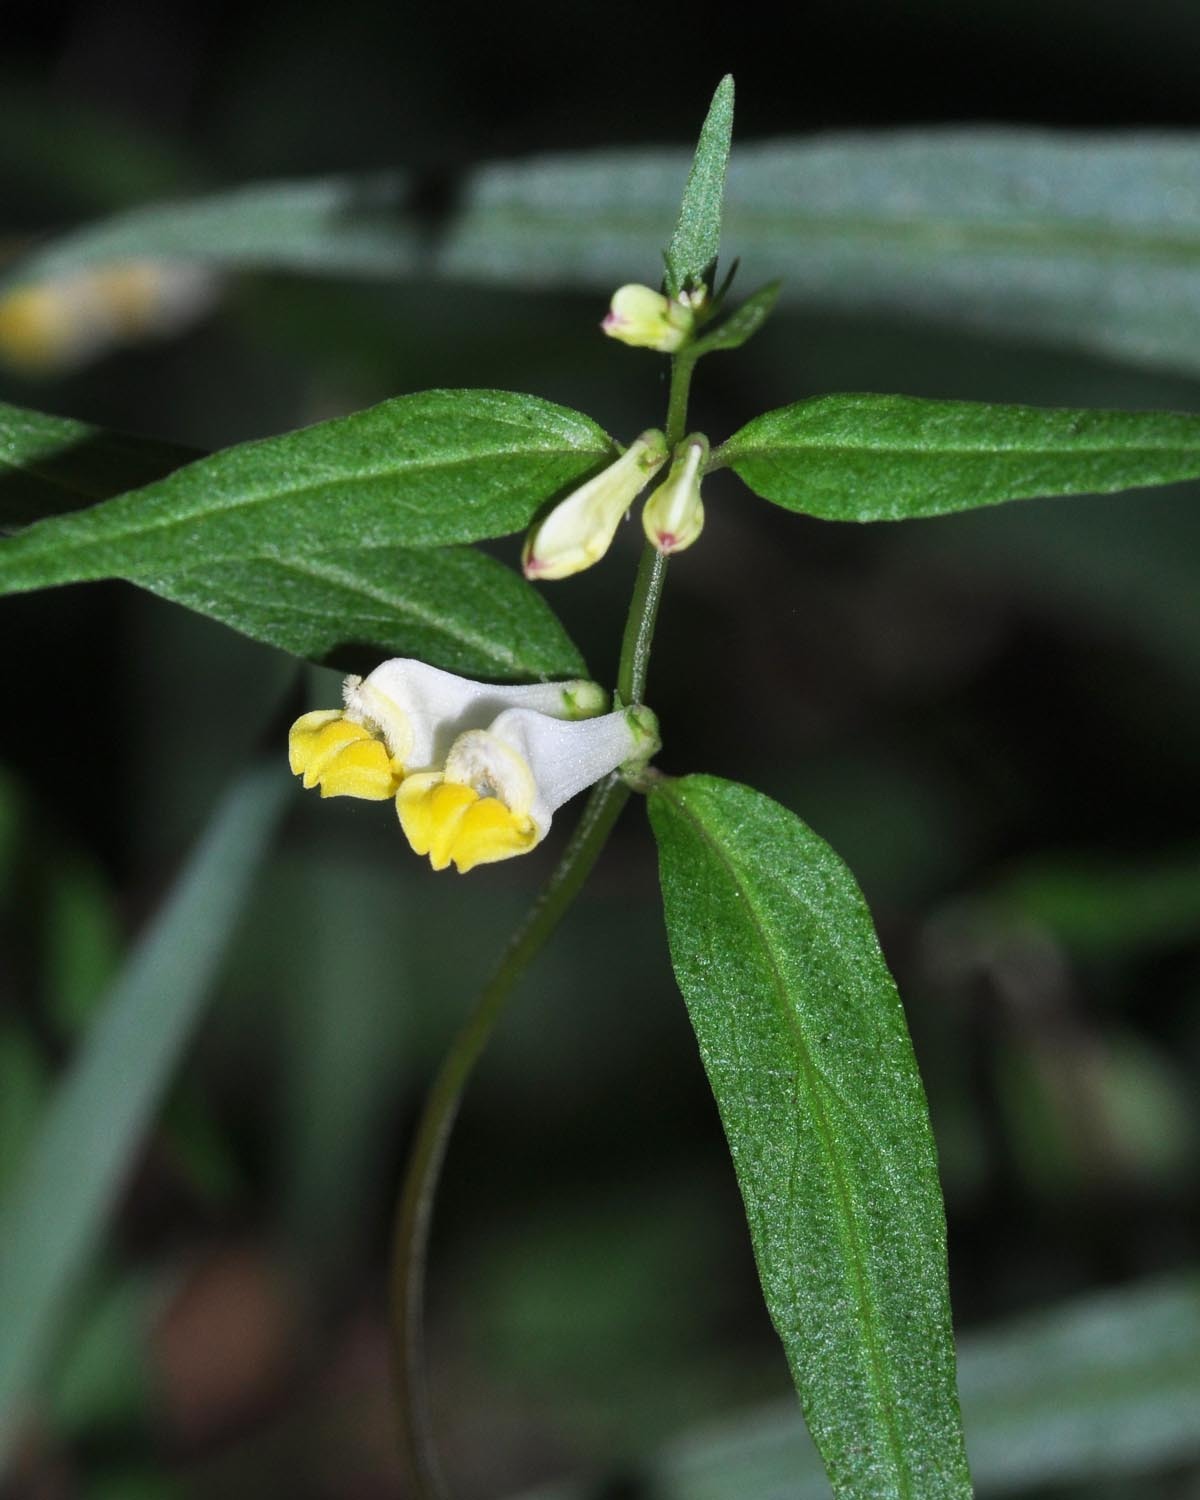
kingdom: Plantae
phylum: Tracheophyta
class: Magnoliopsida
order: Lamiales
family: Orobanchaceae
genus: Melampyrum
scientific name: Melampyrum pratense
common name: Common cow-wheat
